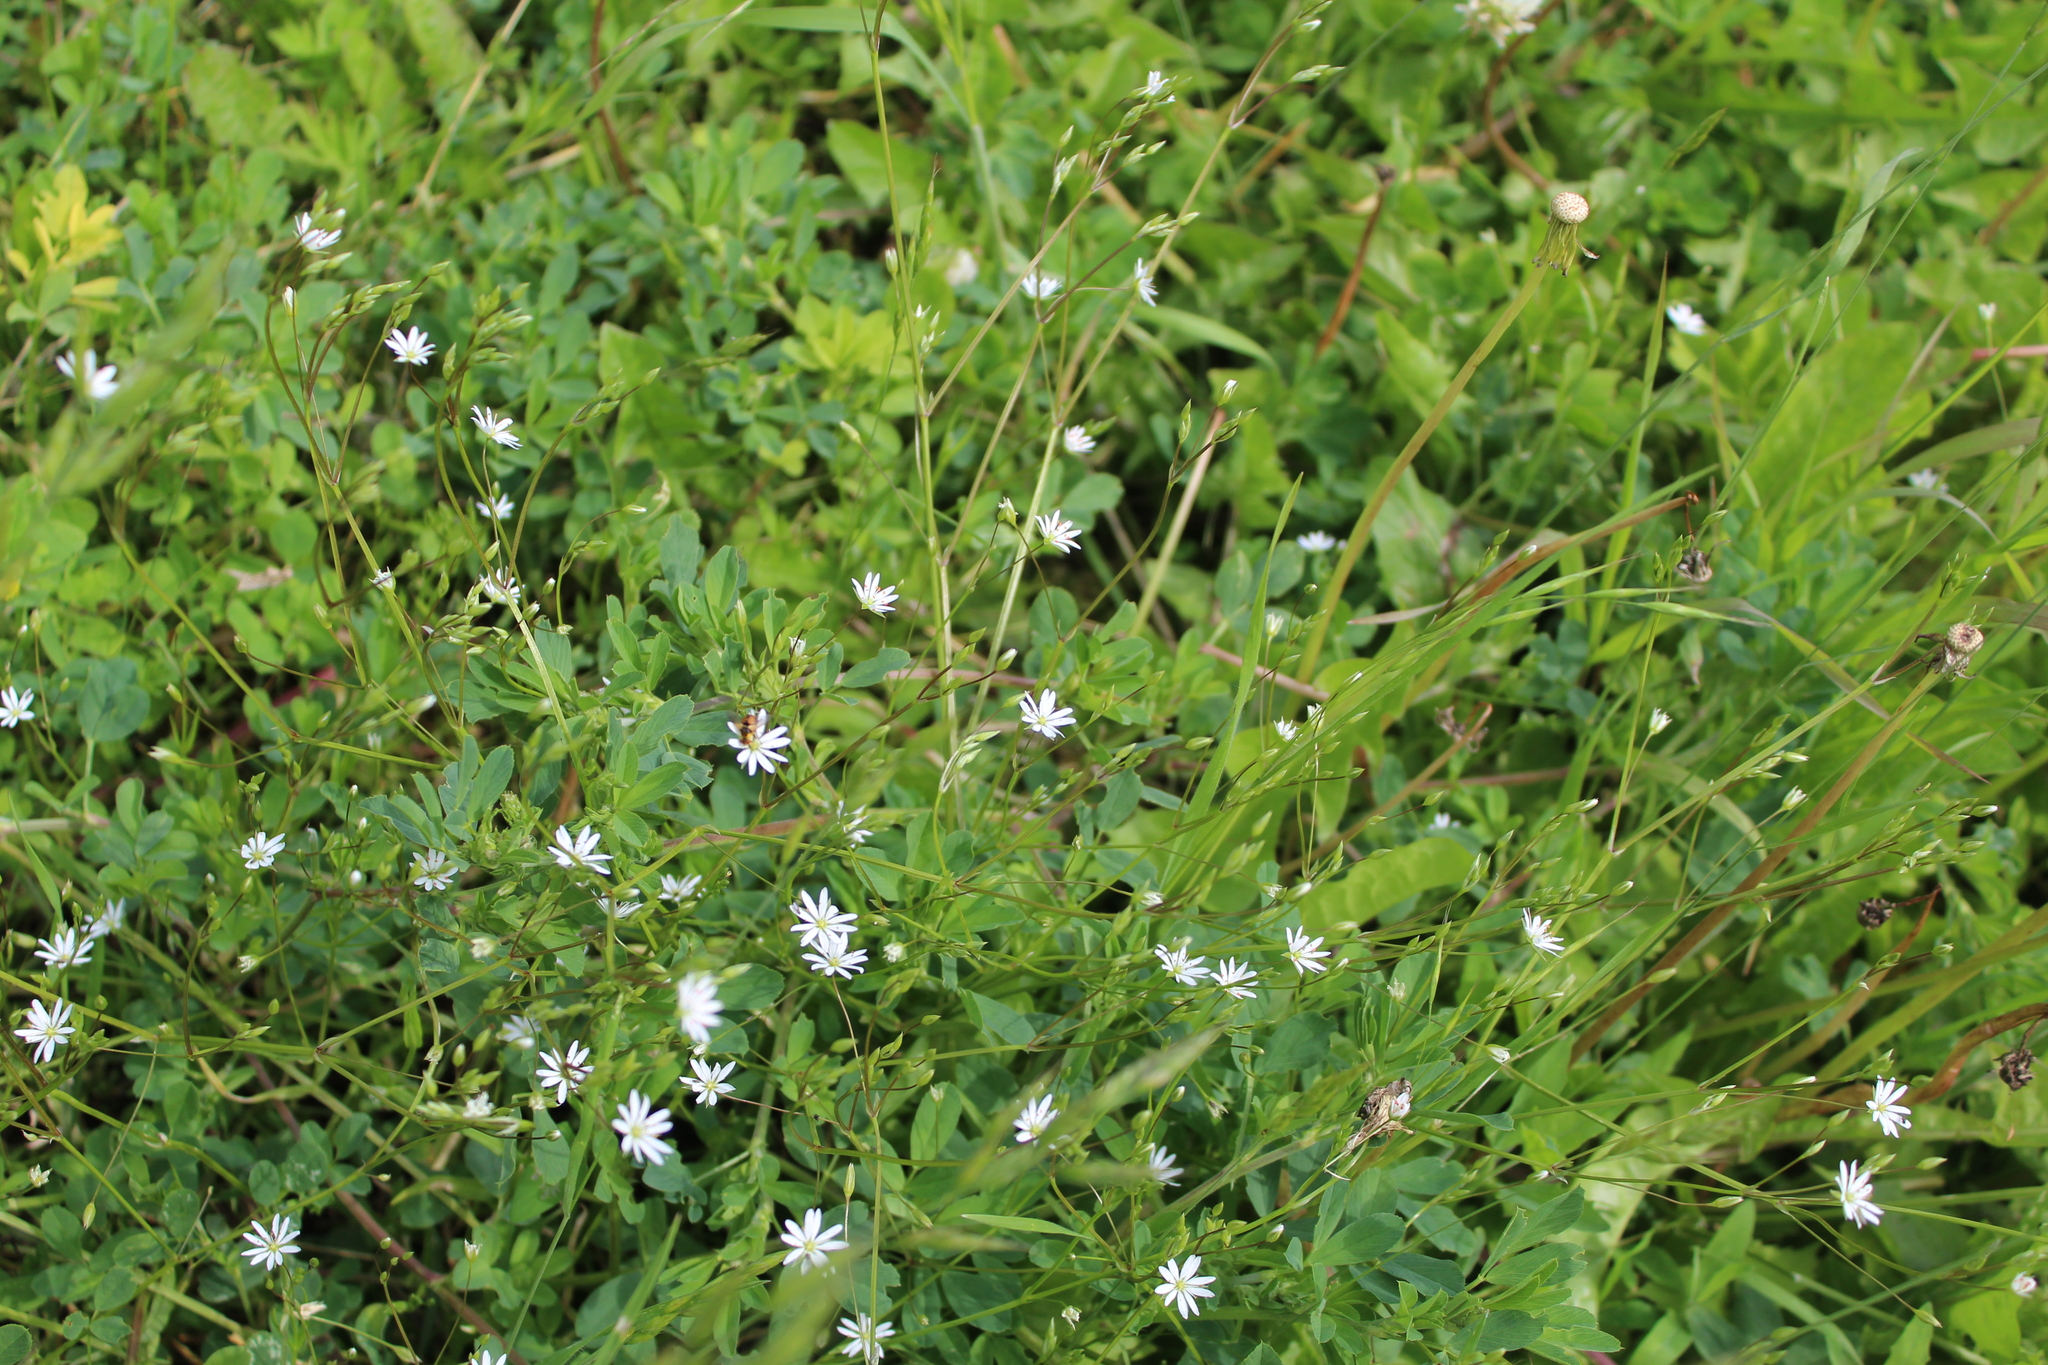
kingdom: Plantae
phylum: Tracheophyta
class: Magnoliopsida
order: Caryophyllales
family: Caryophyllaceae
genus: Stellaria
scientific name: Stellaria graminea
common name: Grass-like starwort
